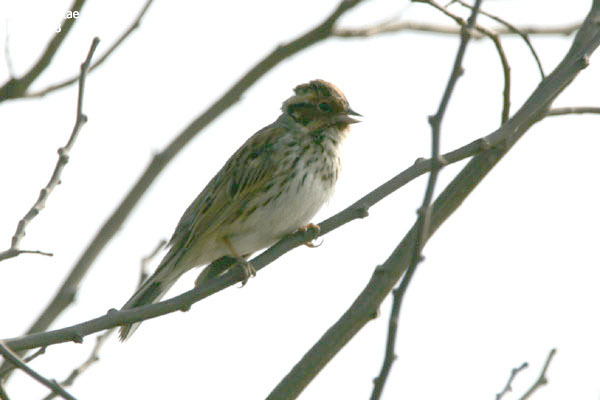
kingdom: Animalia
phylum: Chordata
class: Aves
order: Passeriformes
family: Emberizidae
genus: Emberiza
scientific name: Emberiza pusilla
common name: Little bunting
